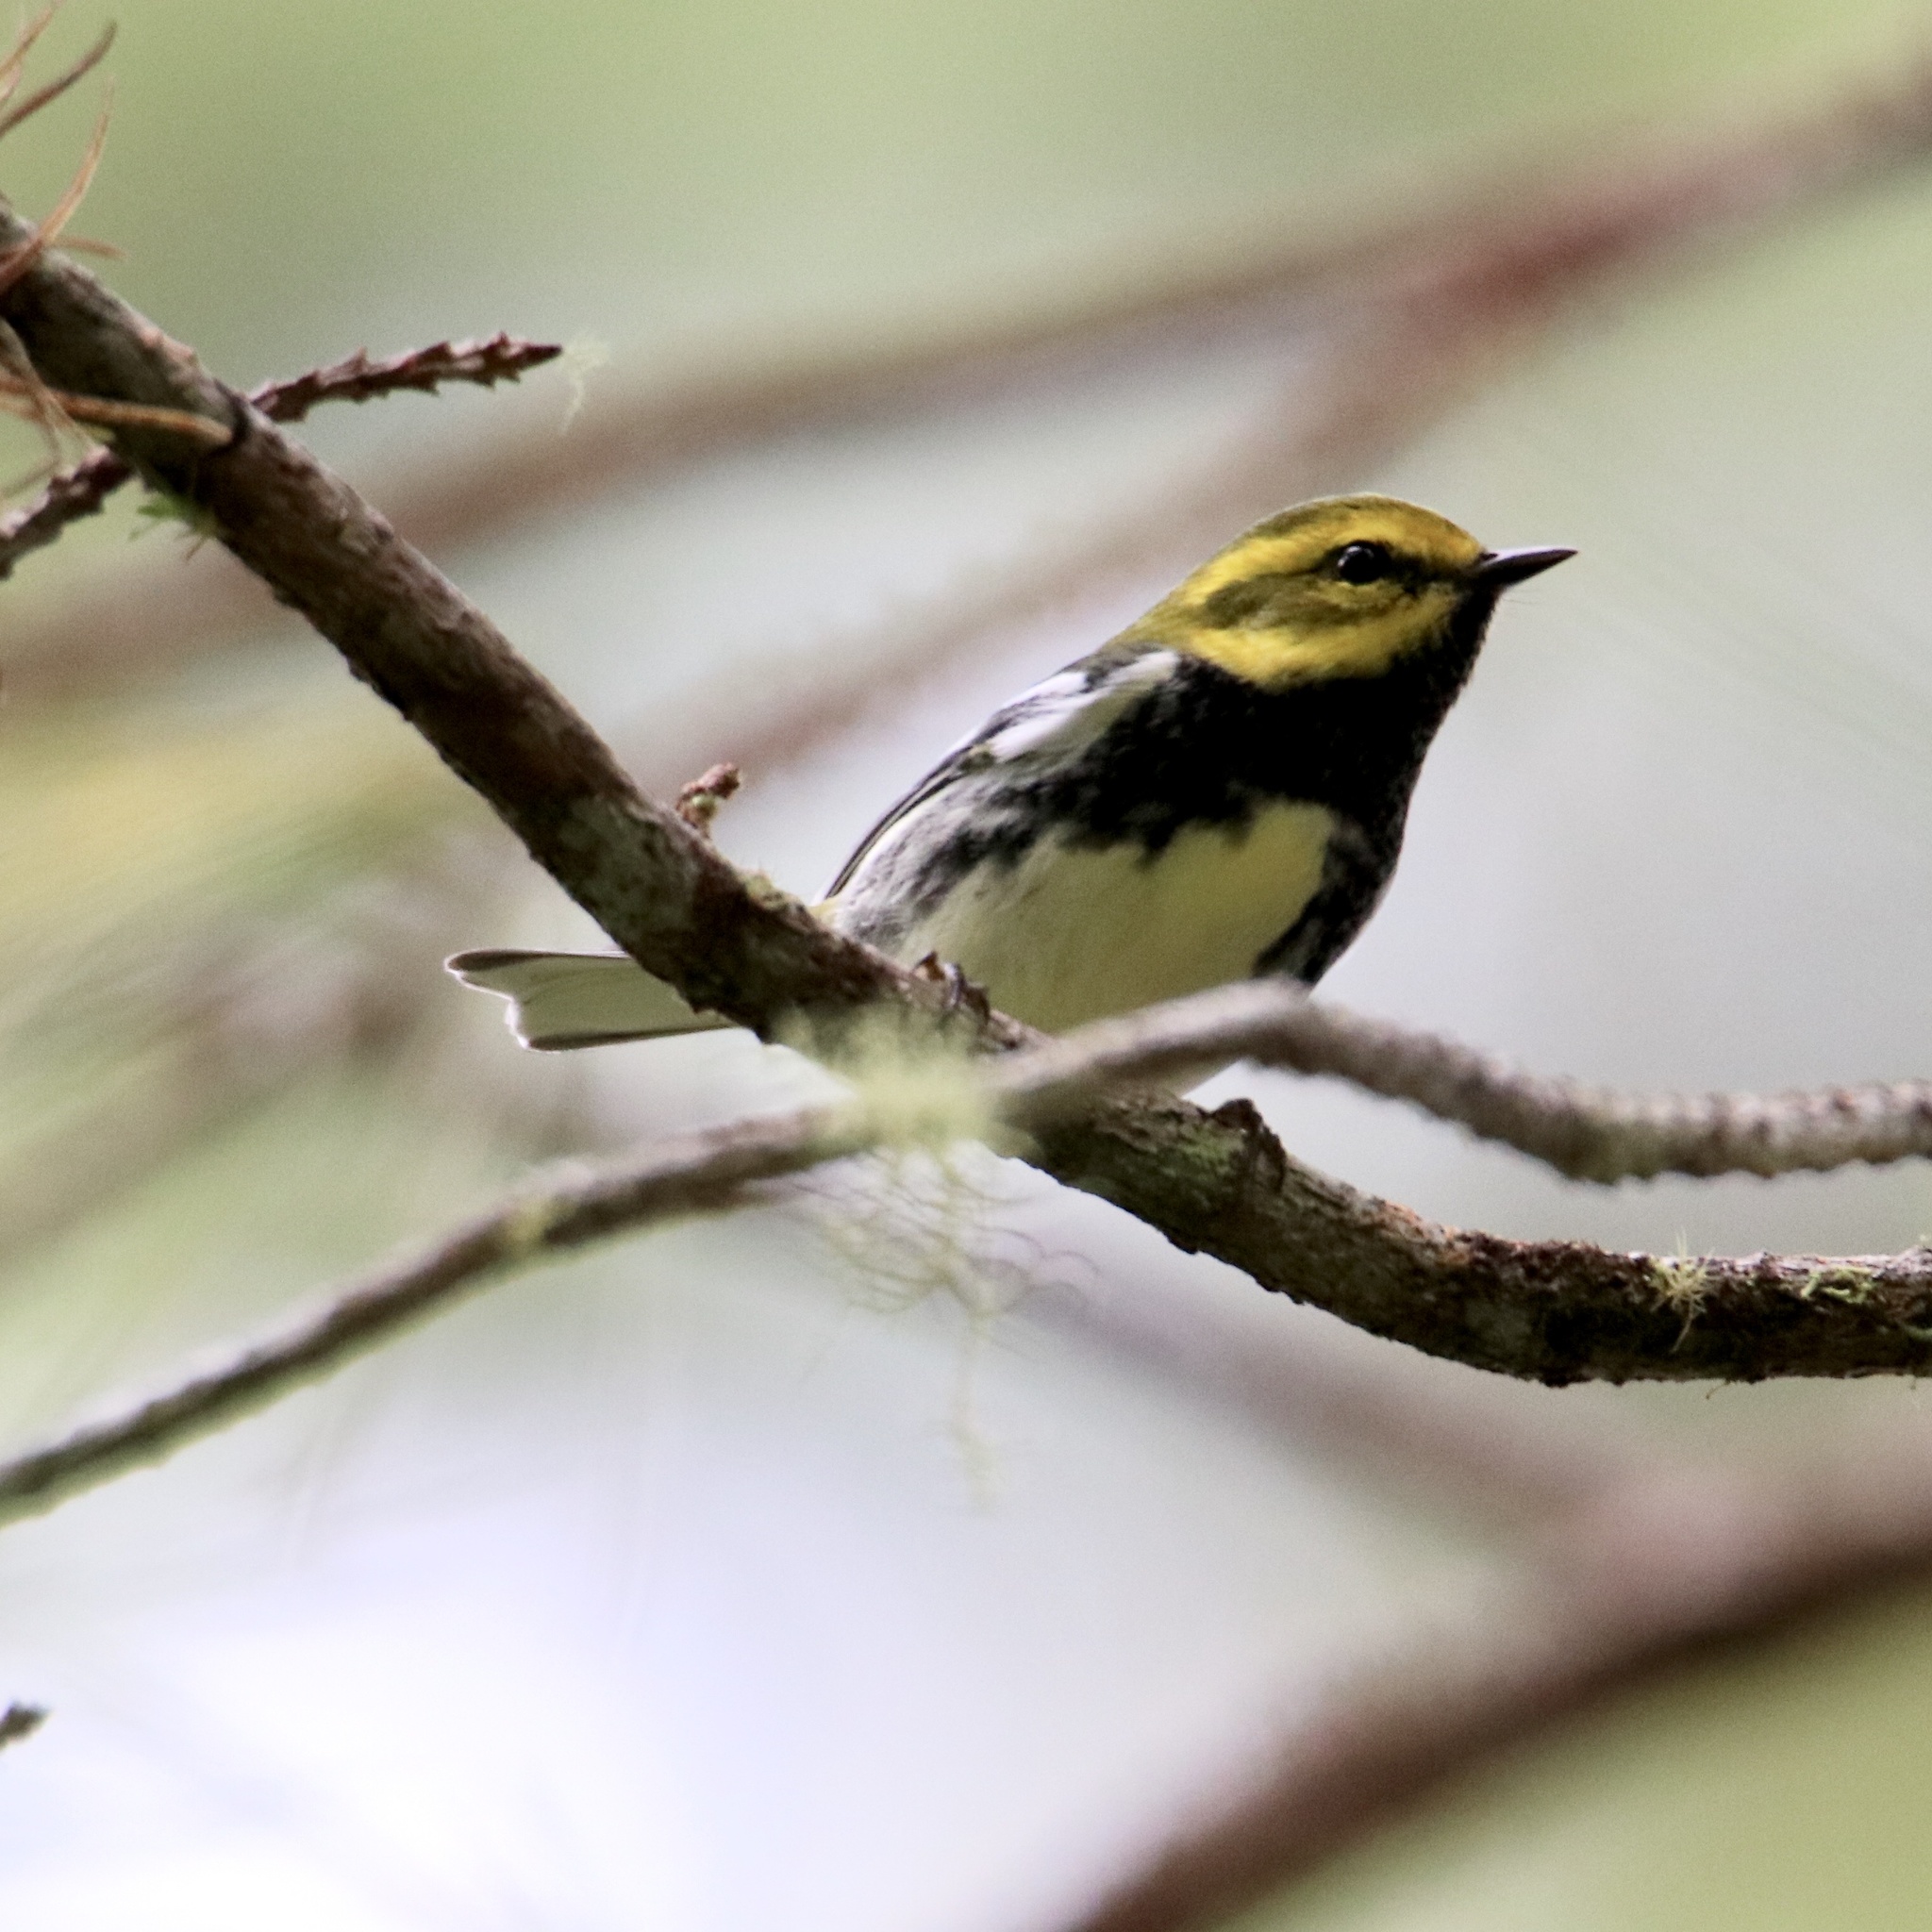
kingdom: Animalia
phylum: Chordata
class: Aves
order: Passeriformes
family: Parulidae
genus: Setophaga
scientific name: Setophaga virens
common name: Black-throated green warbler
